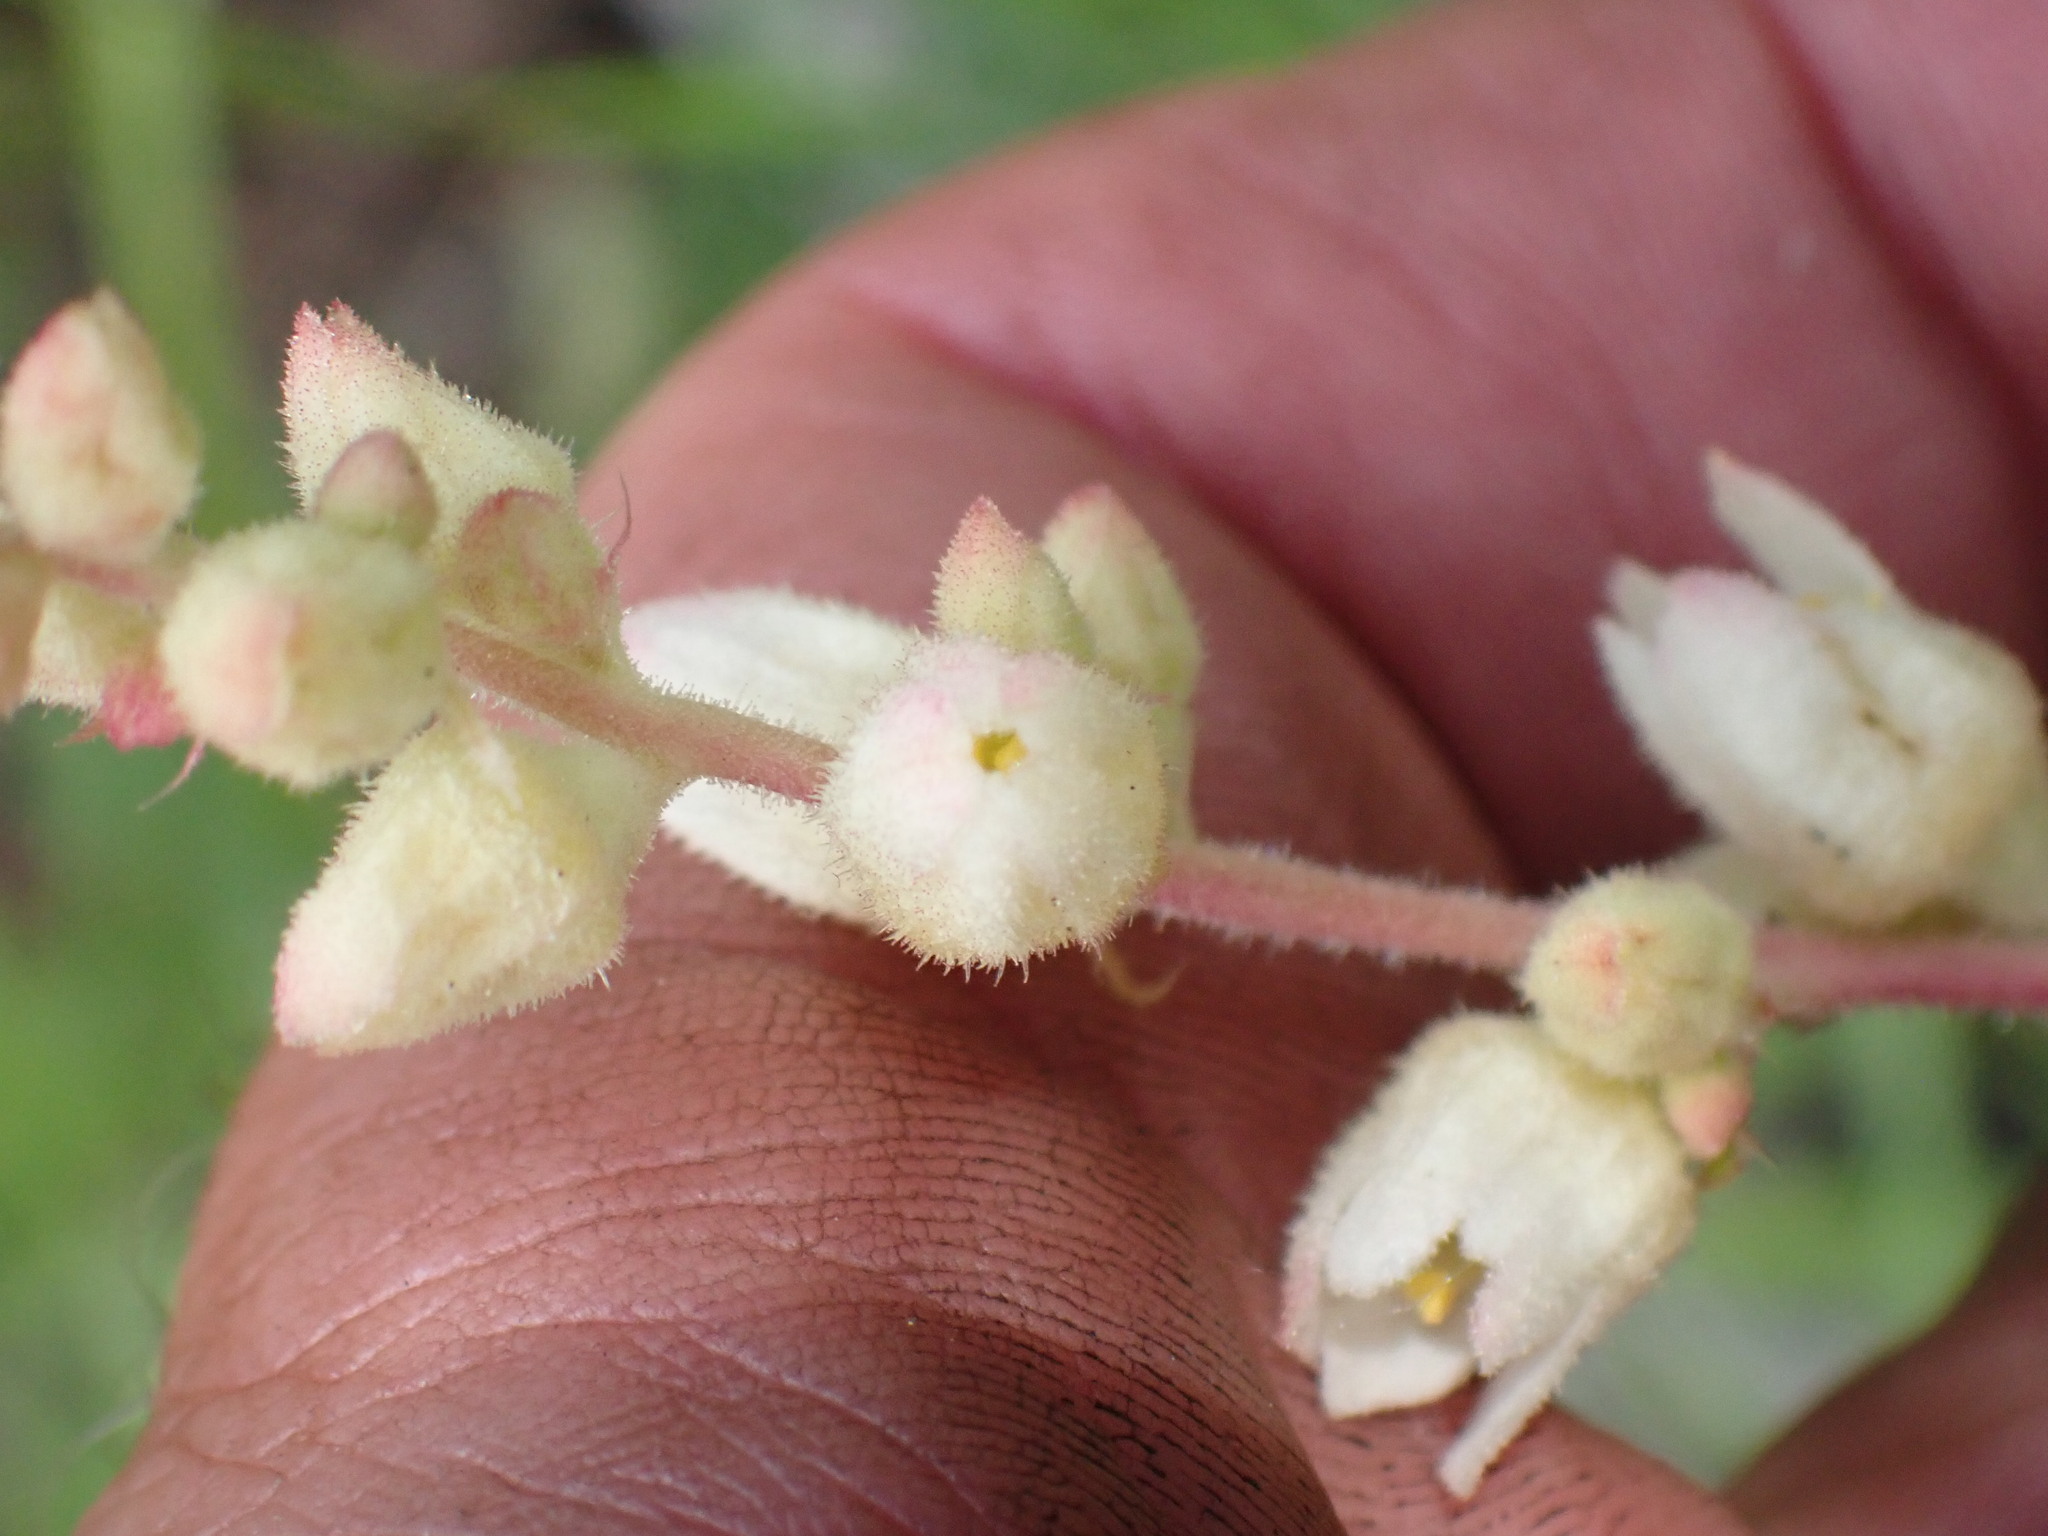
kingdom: Plantae
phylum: Tracheophyta
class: Magnoliopsida
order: Saxifragales
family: Saxifragaceae
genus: Heuchera
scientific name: Heuchera cylindrica
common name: Mat alumroot
